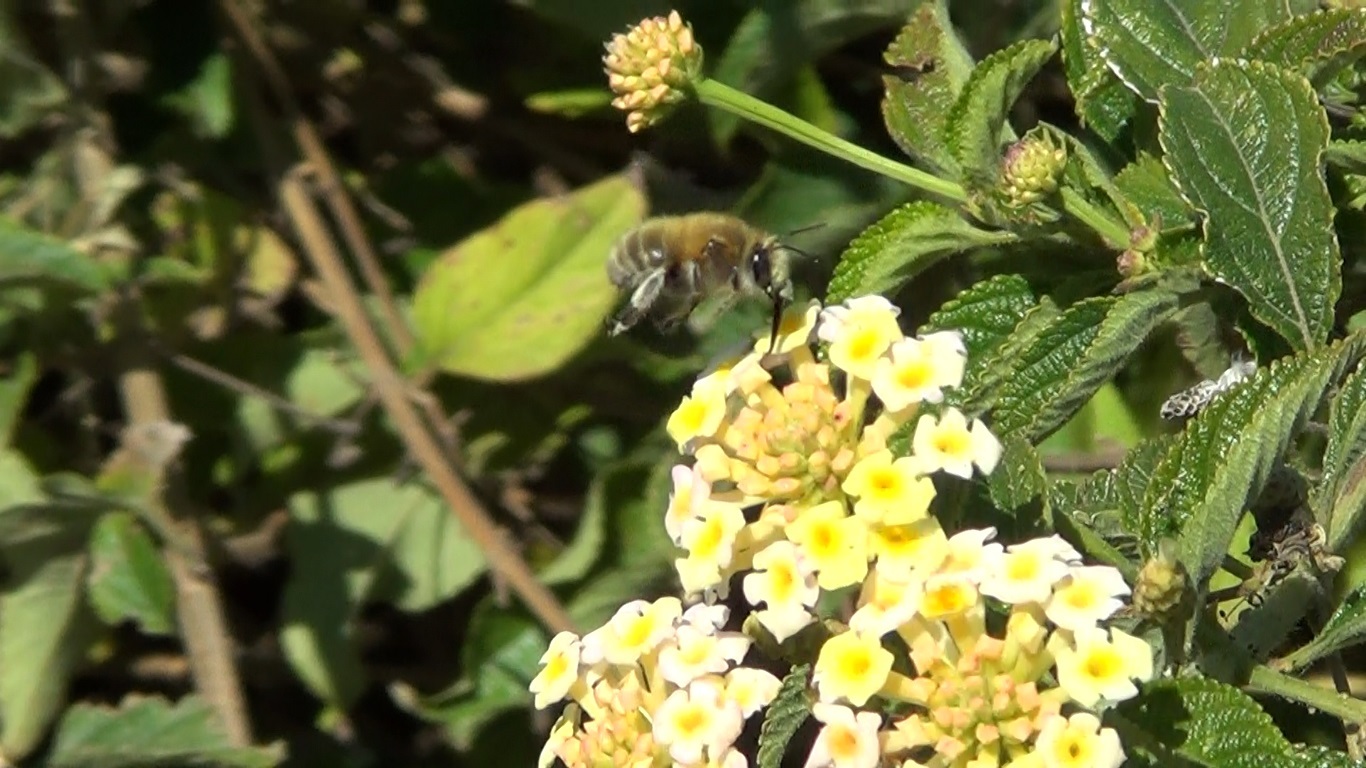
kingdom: Animalia
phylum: Arthropoda
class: Insecta
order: Hymenoptera
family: Apidae
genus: Anthophora
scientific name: Anthophora plumipes
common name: Hairy-footed flower bee
